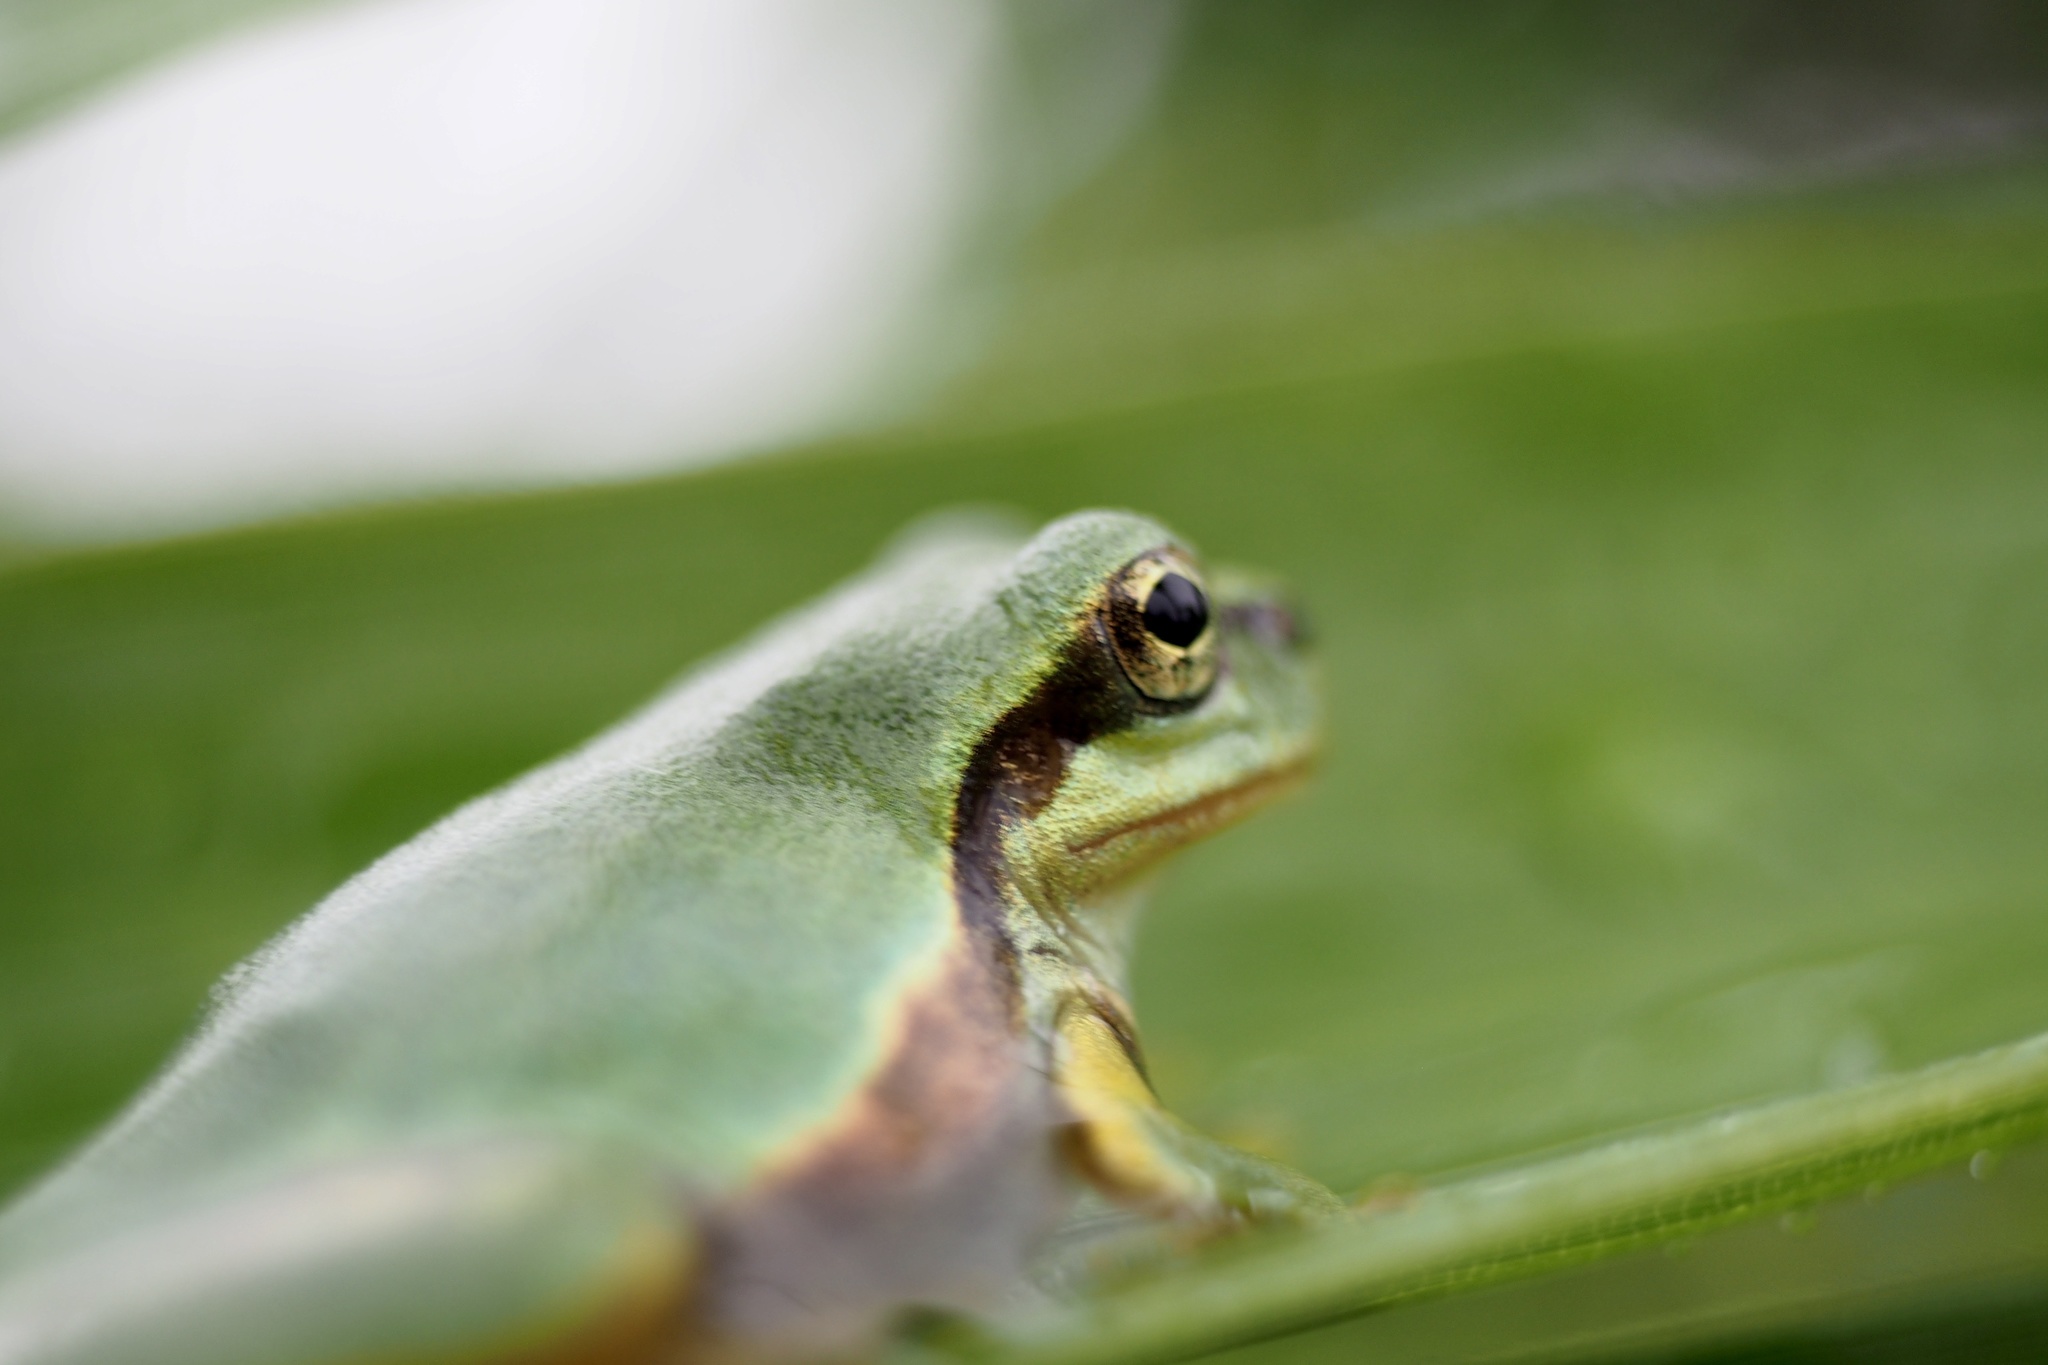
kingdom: Animalia
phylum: Chordata
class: Amphibia
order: Anura
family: Hylidae
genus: Dryophytes
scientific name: Dryophytes japonicus
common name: Japanese treefrog
